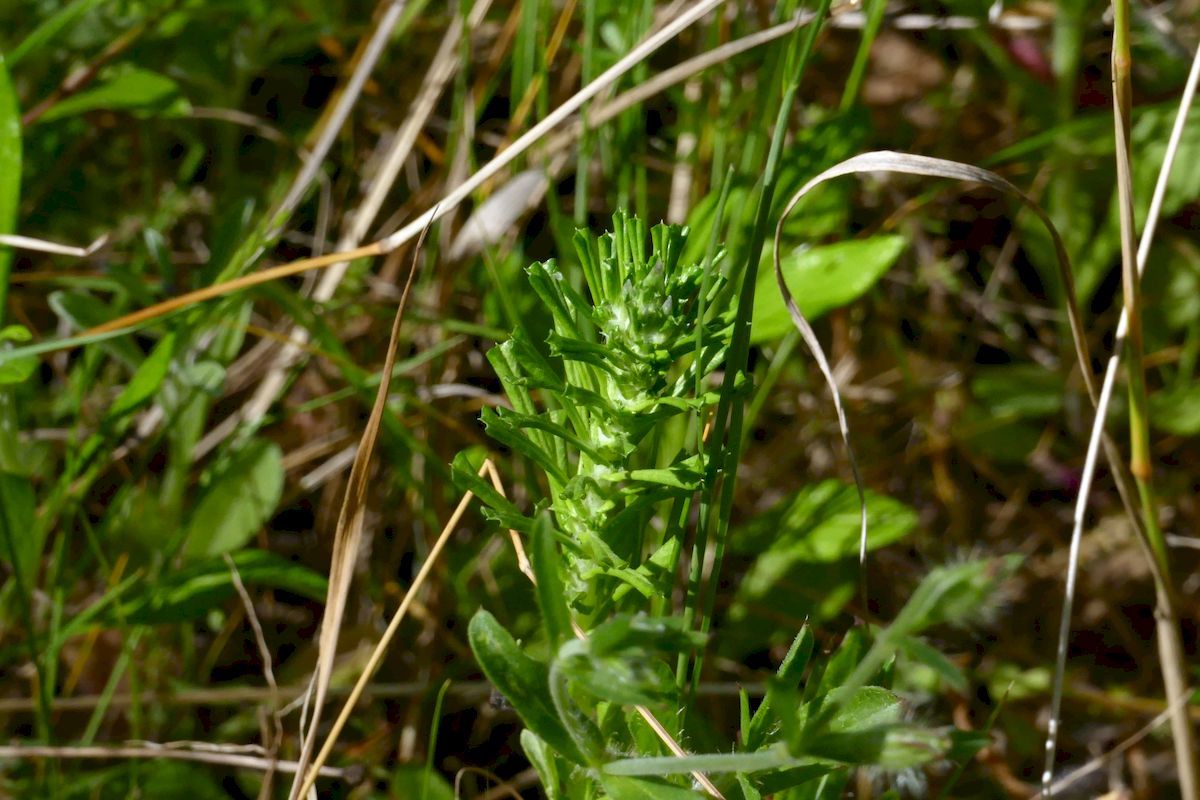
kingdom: Plantae
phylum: Tracheophyta
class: Magnoliopsida
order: Asterales
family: Asteraceae
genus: Facelis
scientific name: Facelis retusa
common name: Annual trampweed
